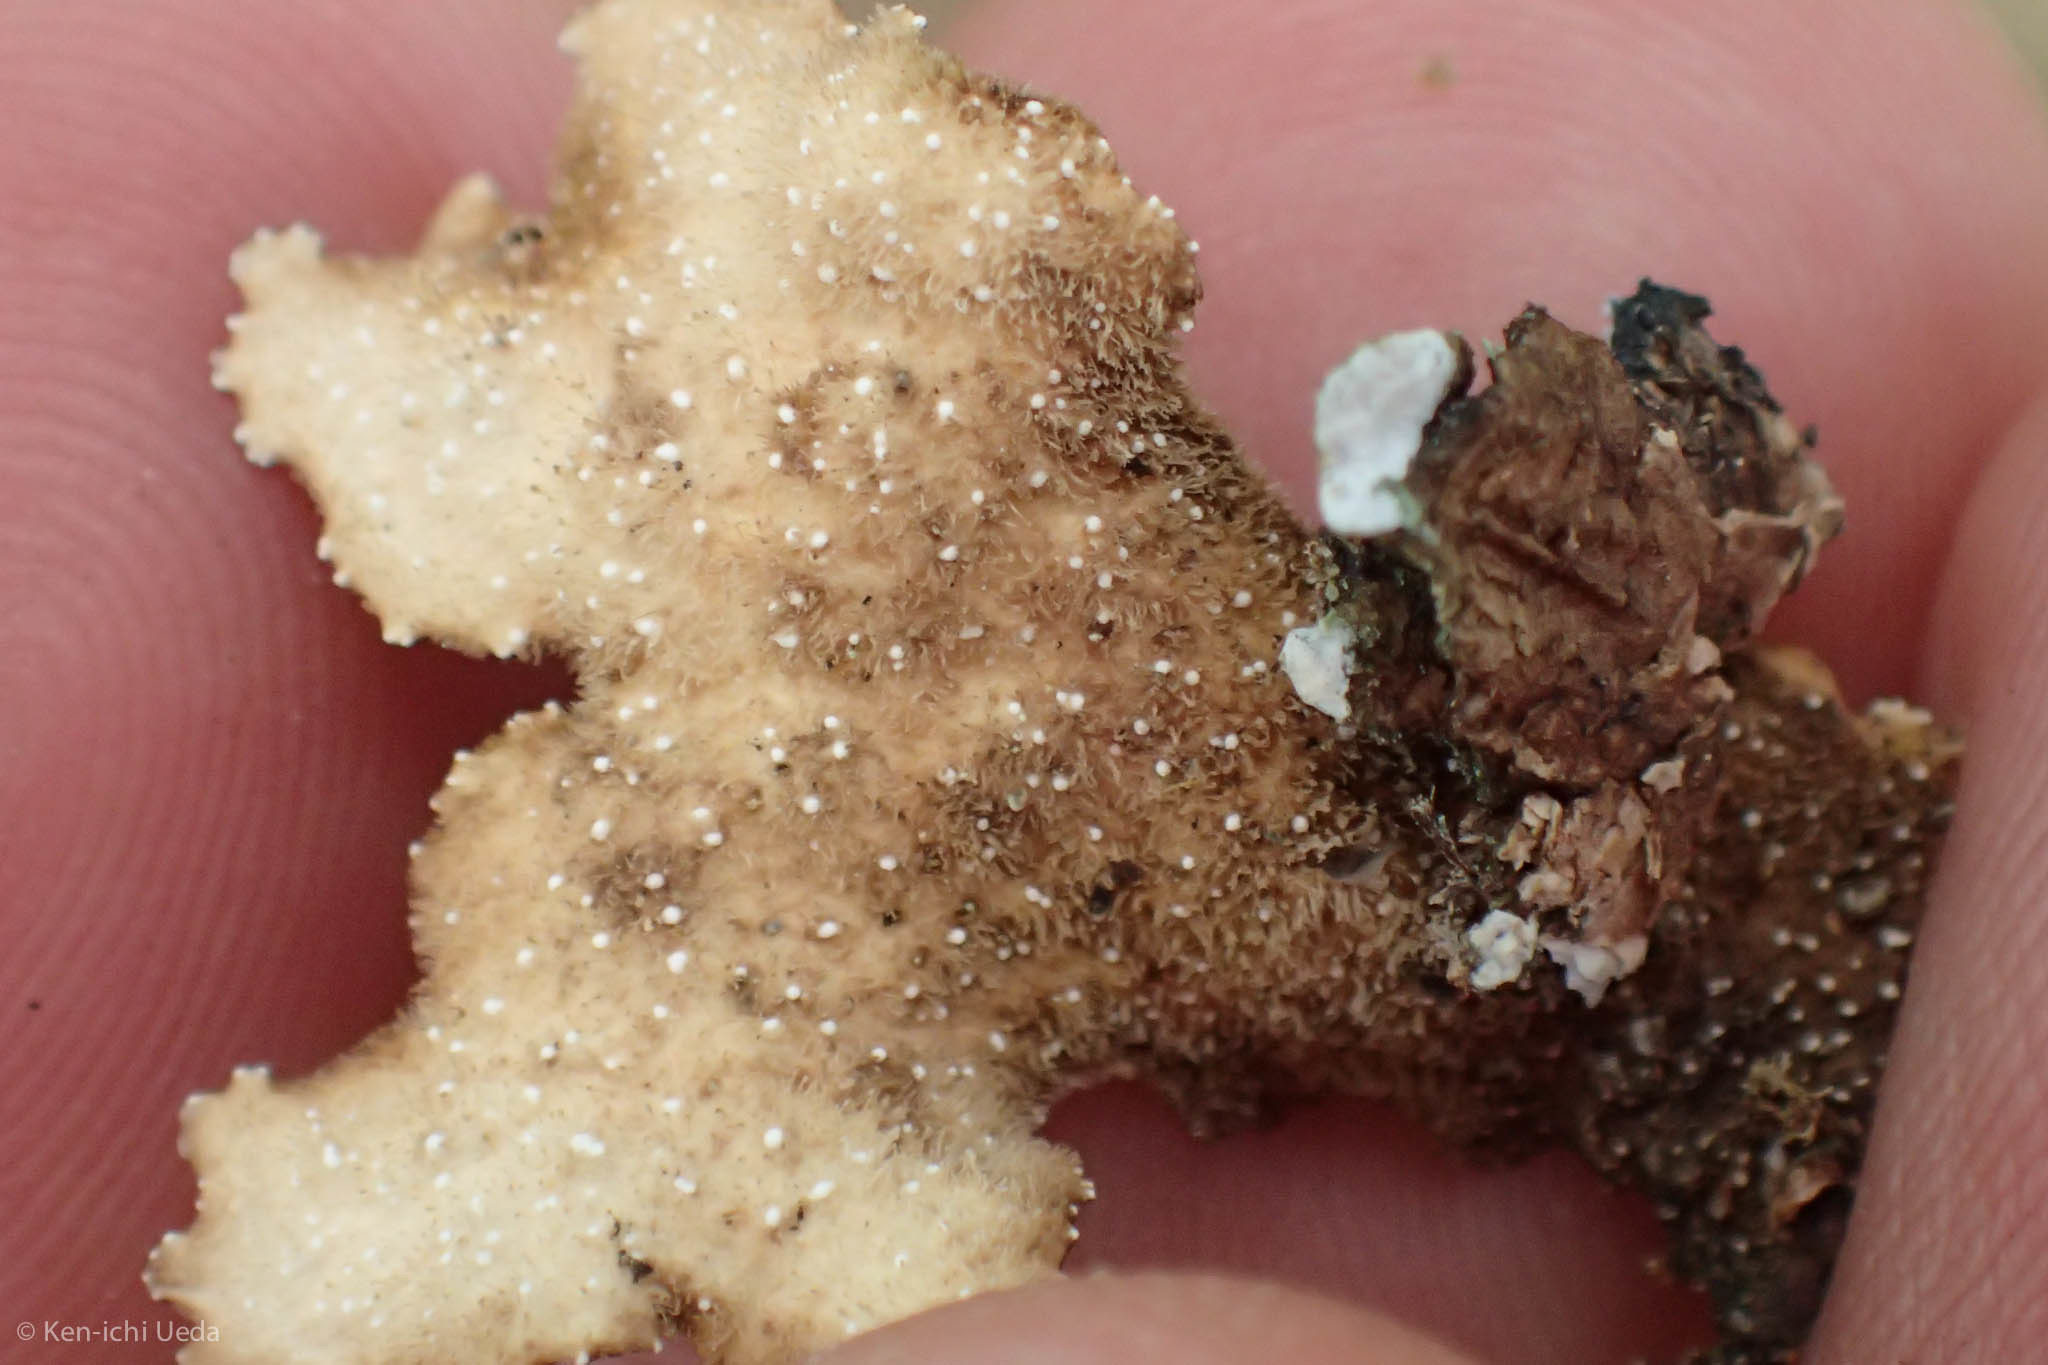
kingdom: Fungi
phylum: Ascomycota
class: Lecanoromycetes
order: Peltigerales
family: Lobariaceae
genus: Lobaria
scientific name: Lobaria anthraspis
